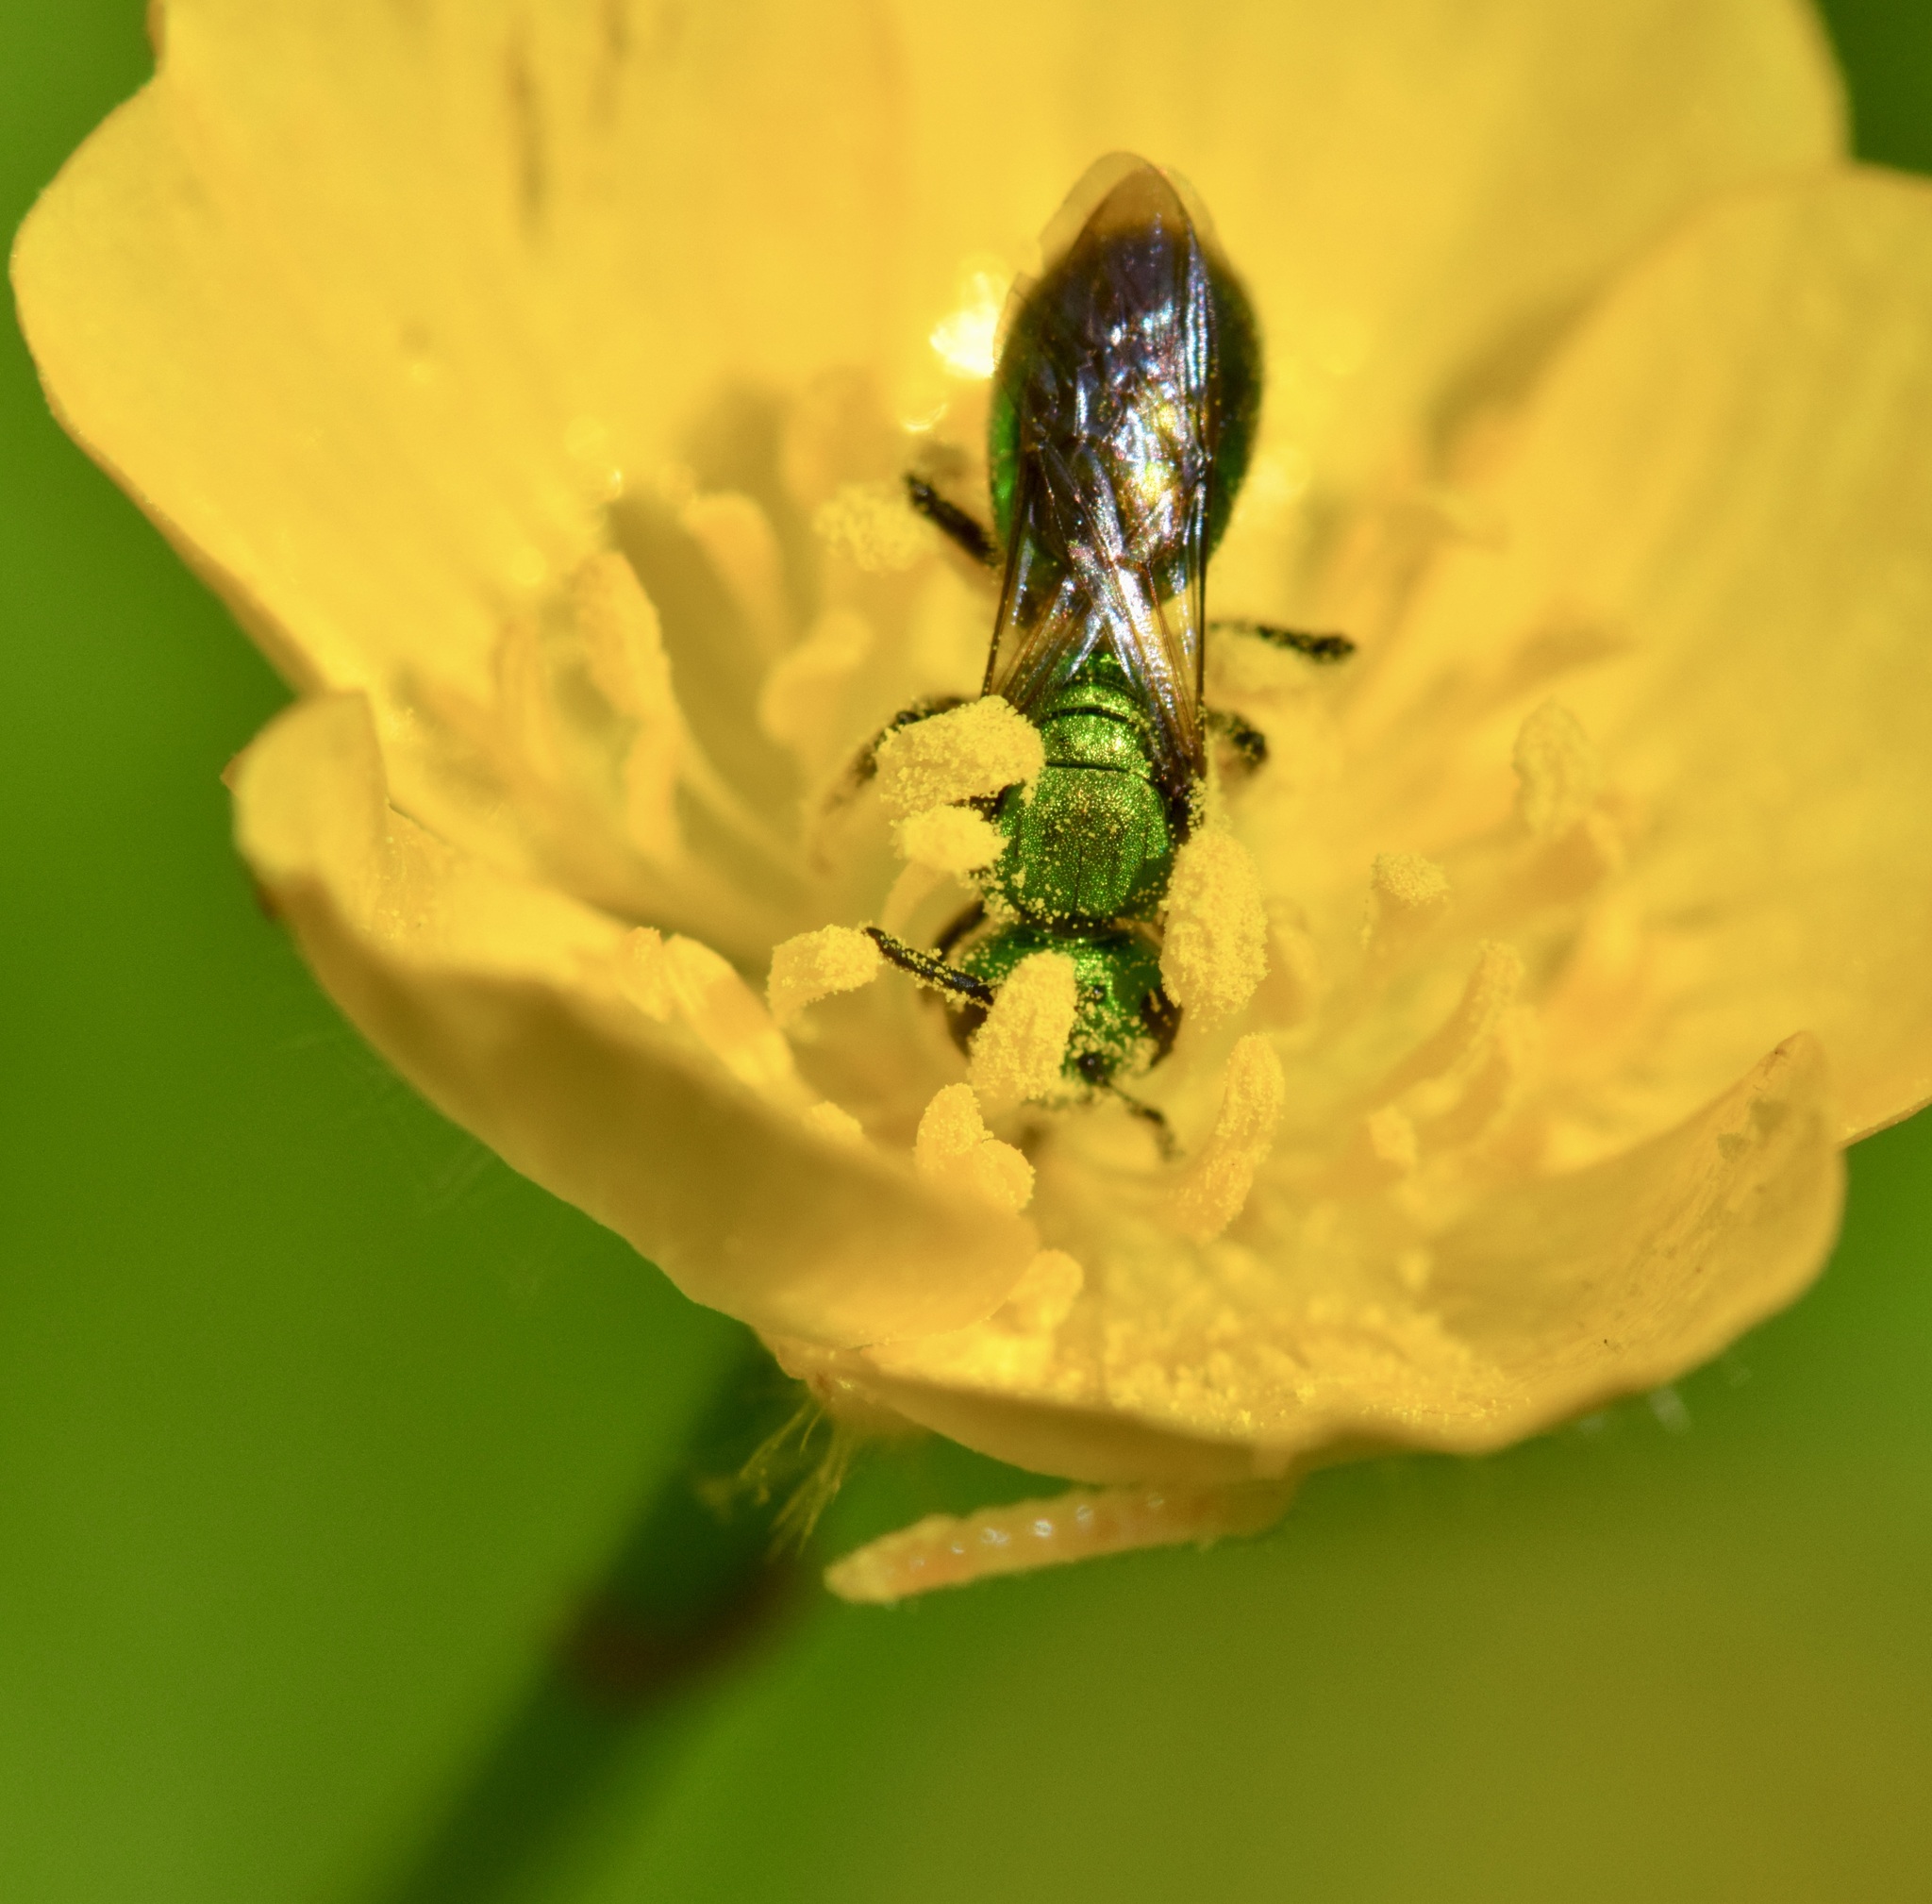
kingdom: Animalia
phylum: Arthropoda
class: Insecta
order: Hymenoptera
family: Halictidae
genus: Augochlora
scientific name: Augochlora pura
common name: Pure green sweat bee
